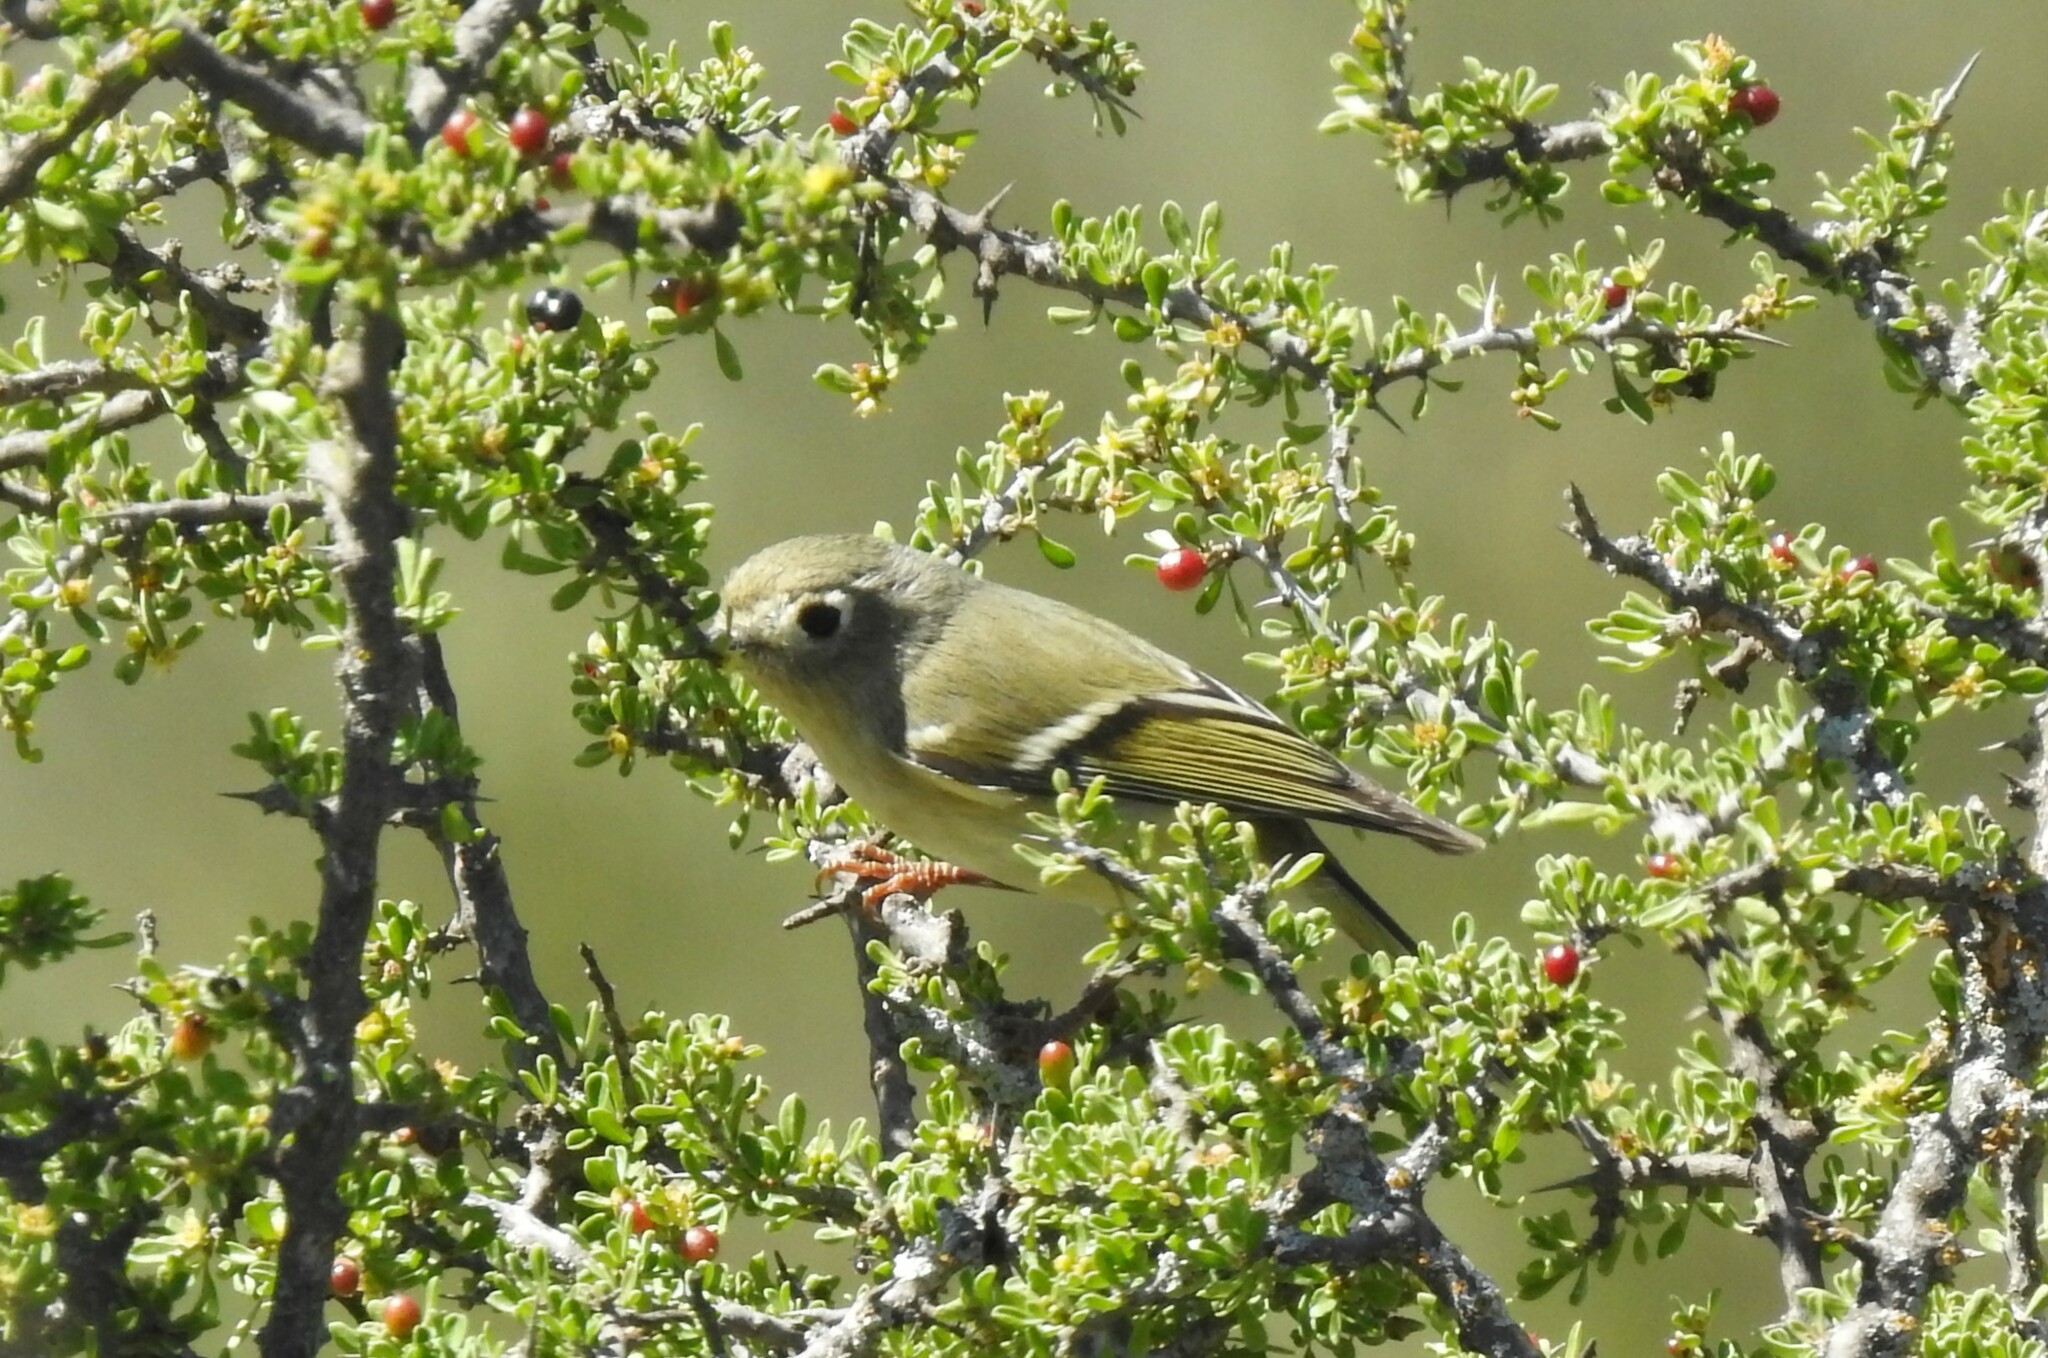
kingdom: Animalia
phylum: Chordata
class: Aves
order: Passeriformes
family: Regulidae
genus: Regulus
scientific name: Regulus calendula
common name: Ruby-crowned kinglet
